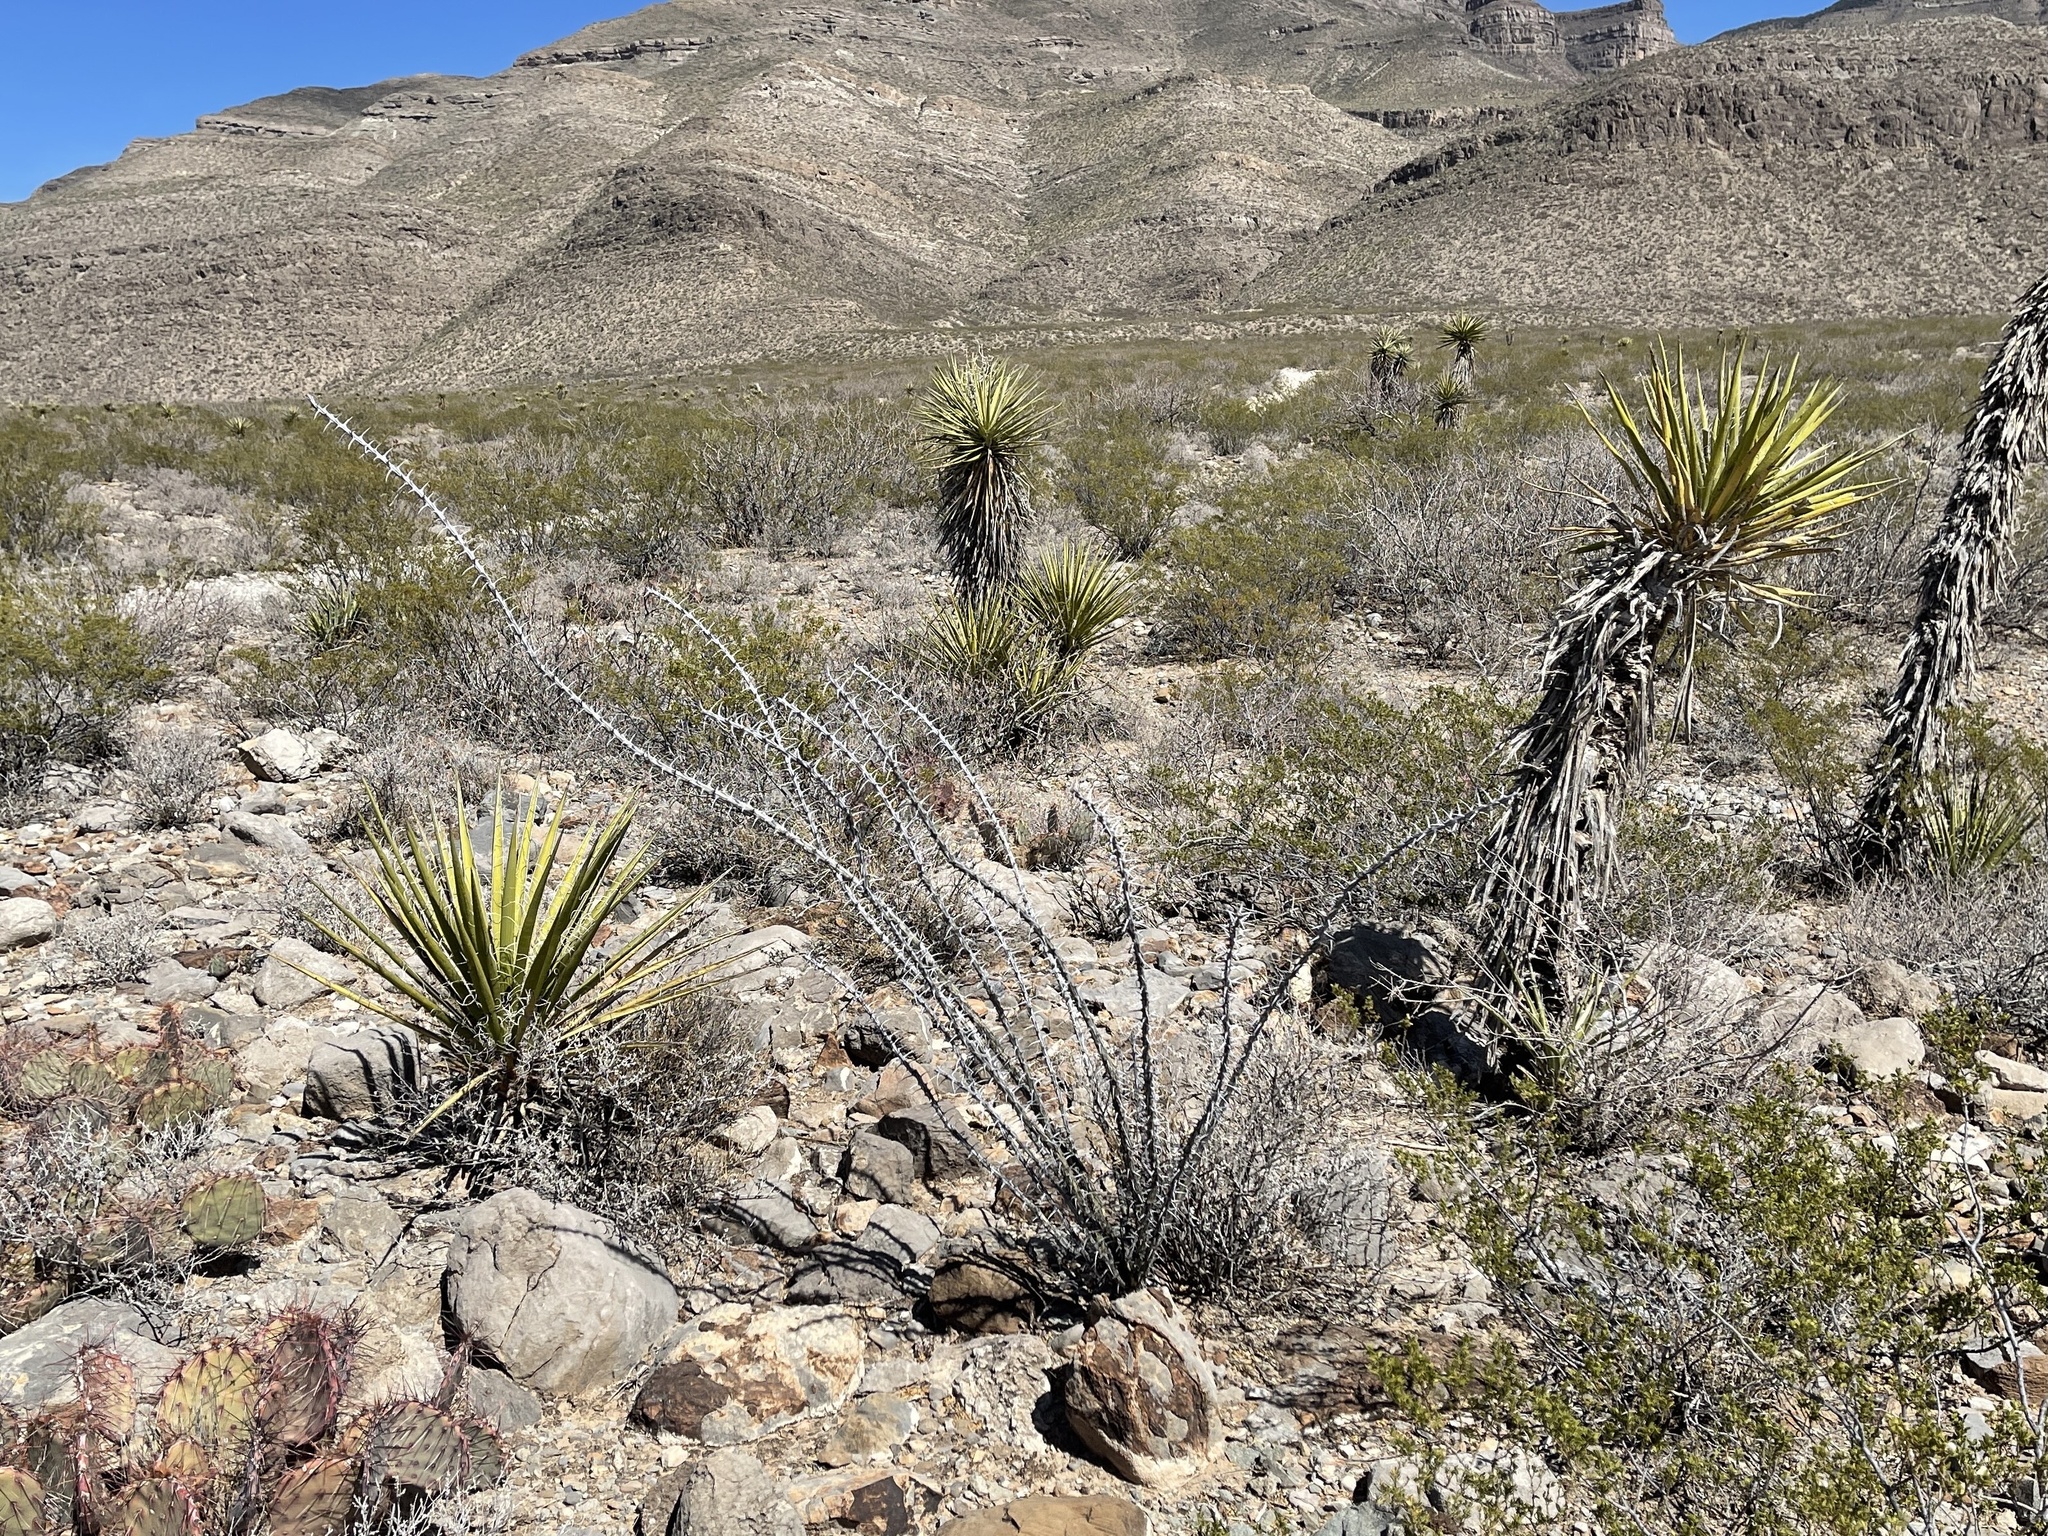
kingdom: Plantae
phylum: Tracheophyta
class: Magnoliopsida
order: Ericales
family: Fouquieriaceae
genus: Fouquieria
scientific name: Fouquieria splendens
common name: Vine-cactus
